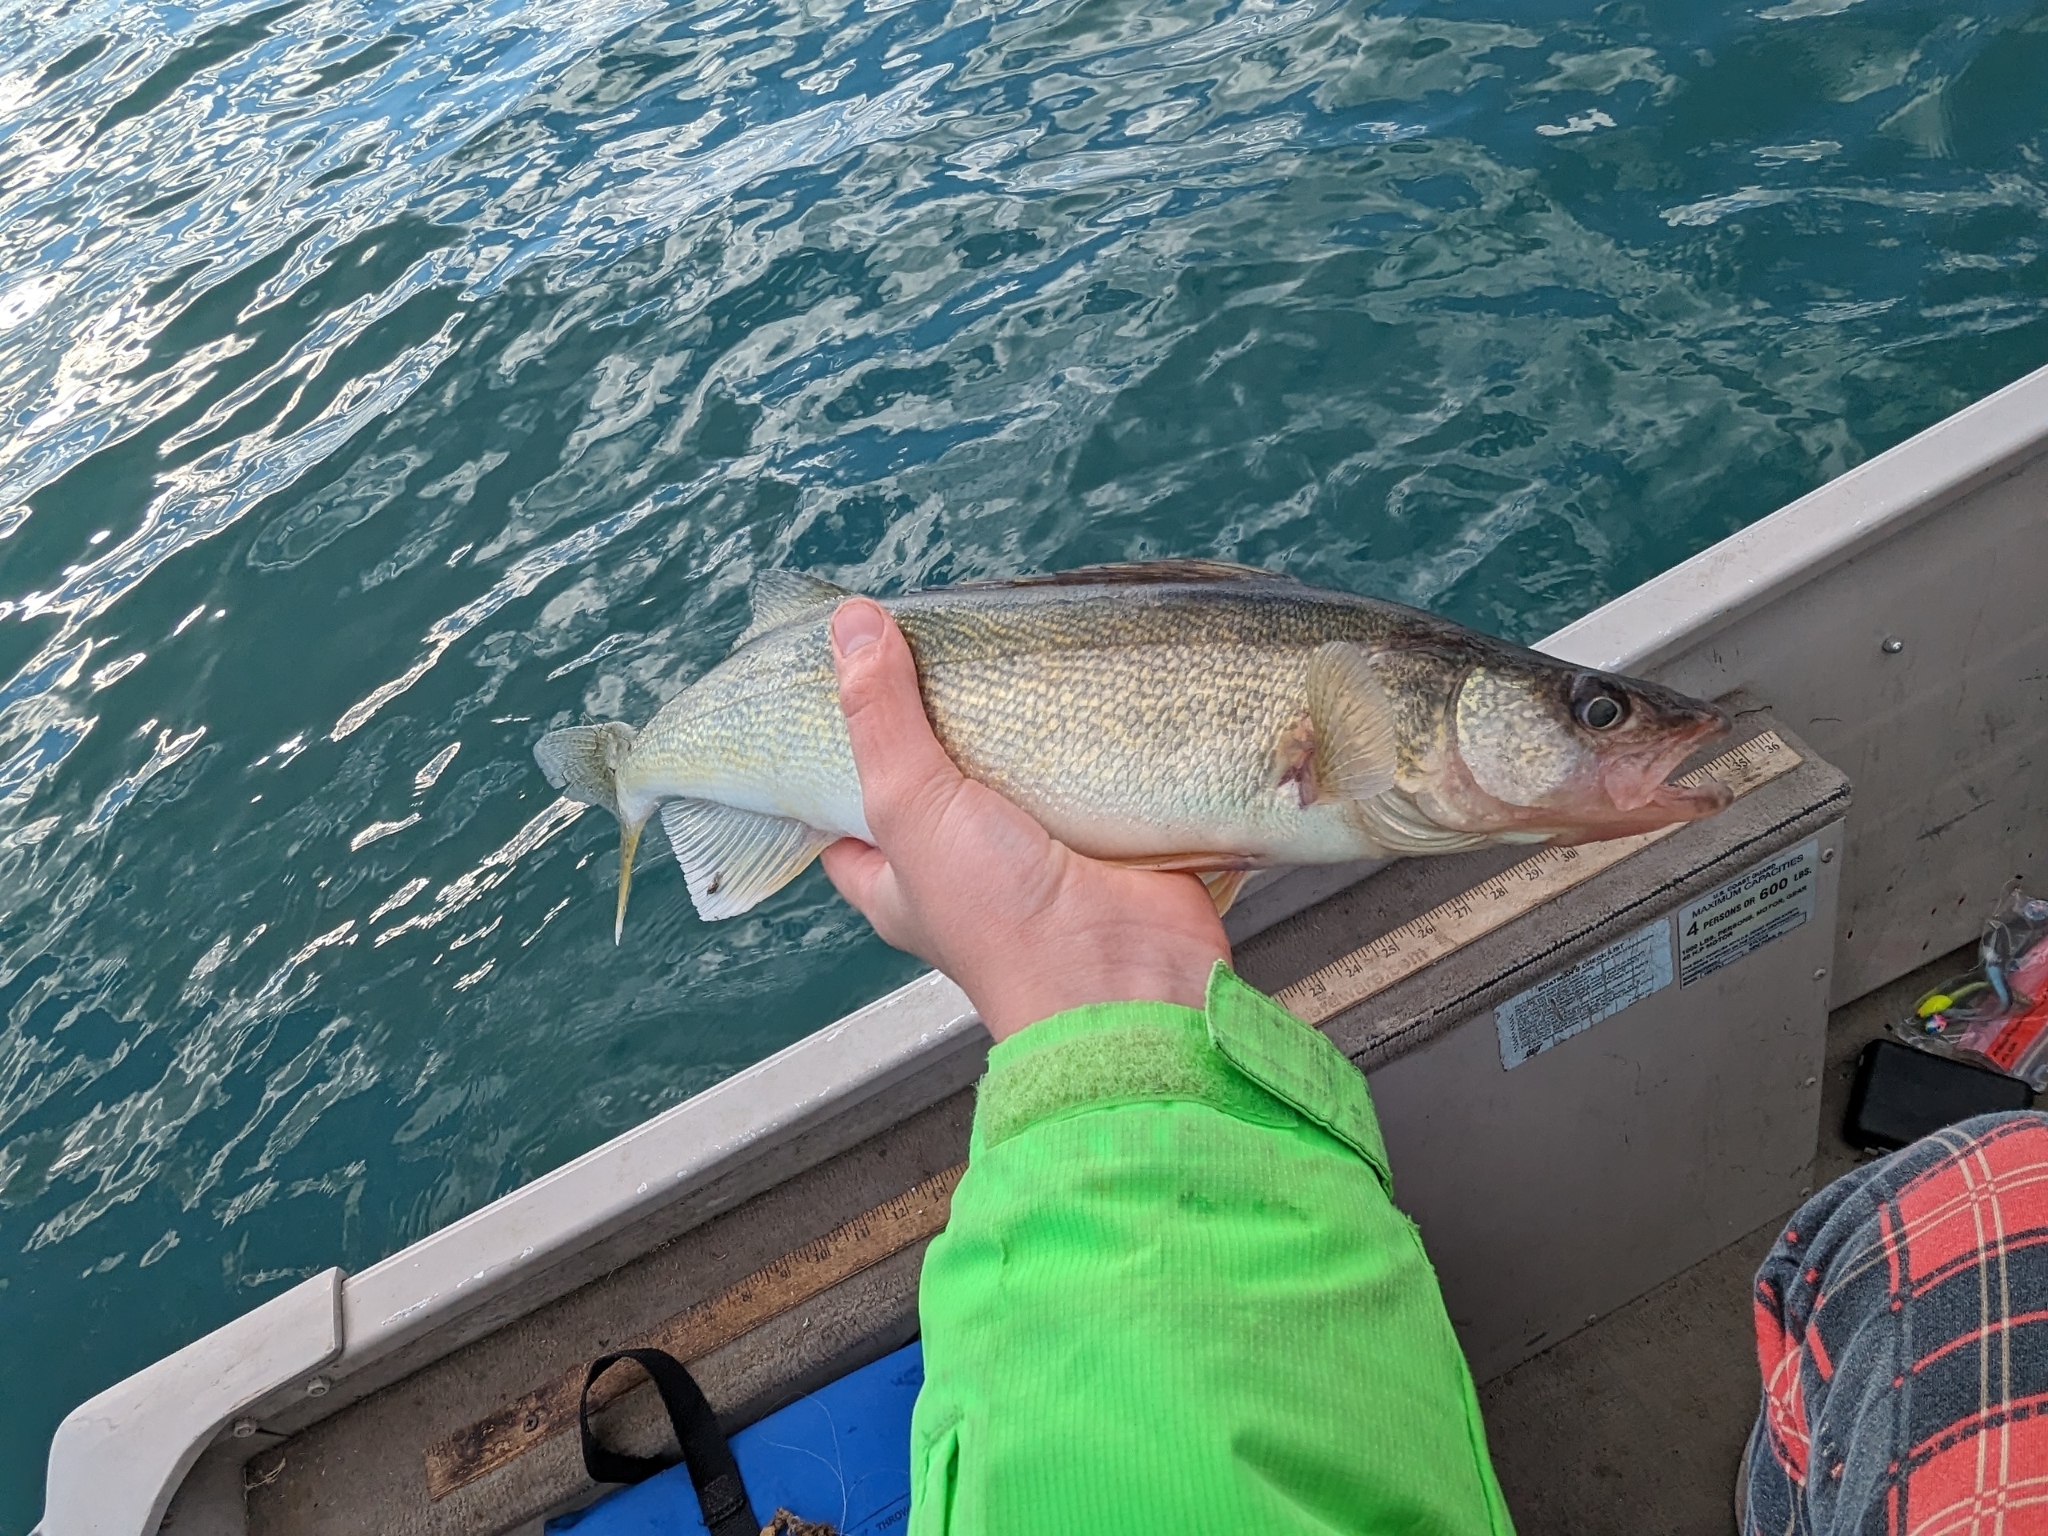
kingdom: Animalia
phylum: Chordata
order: Perciformes
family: Percidae
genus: Sander
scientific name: Sander vitreus
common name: Walleye
